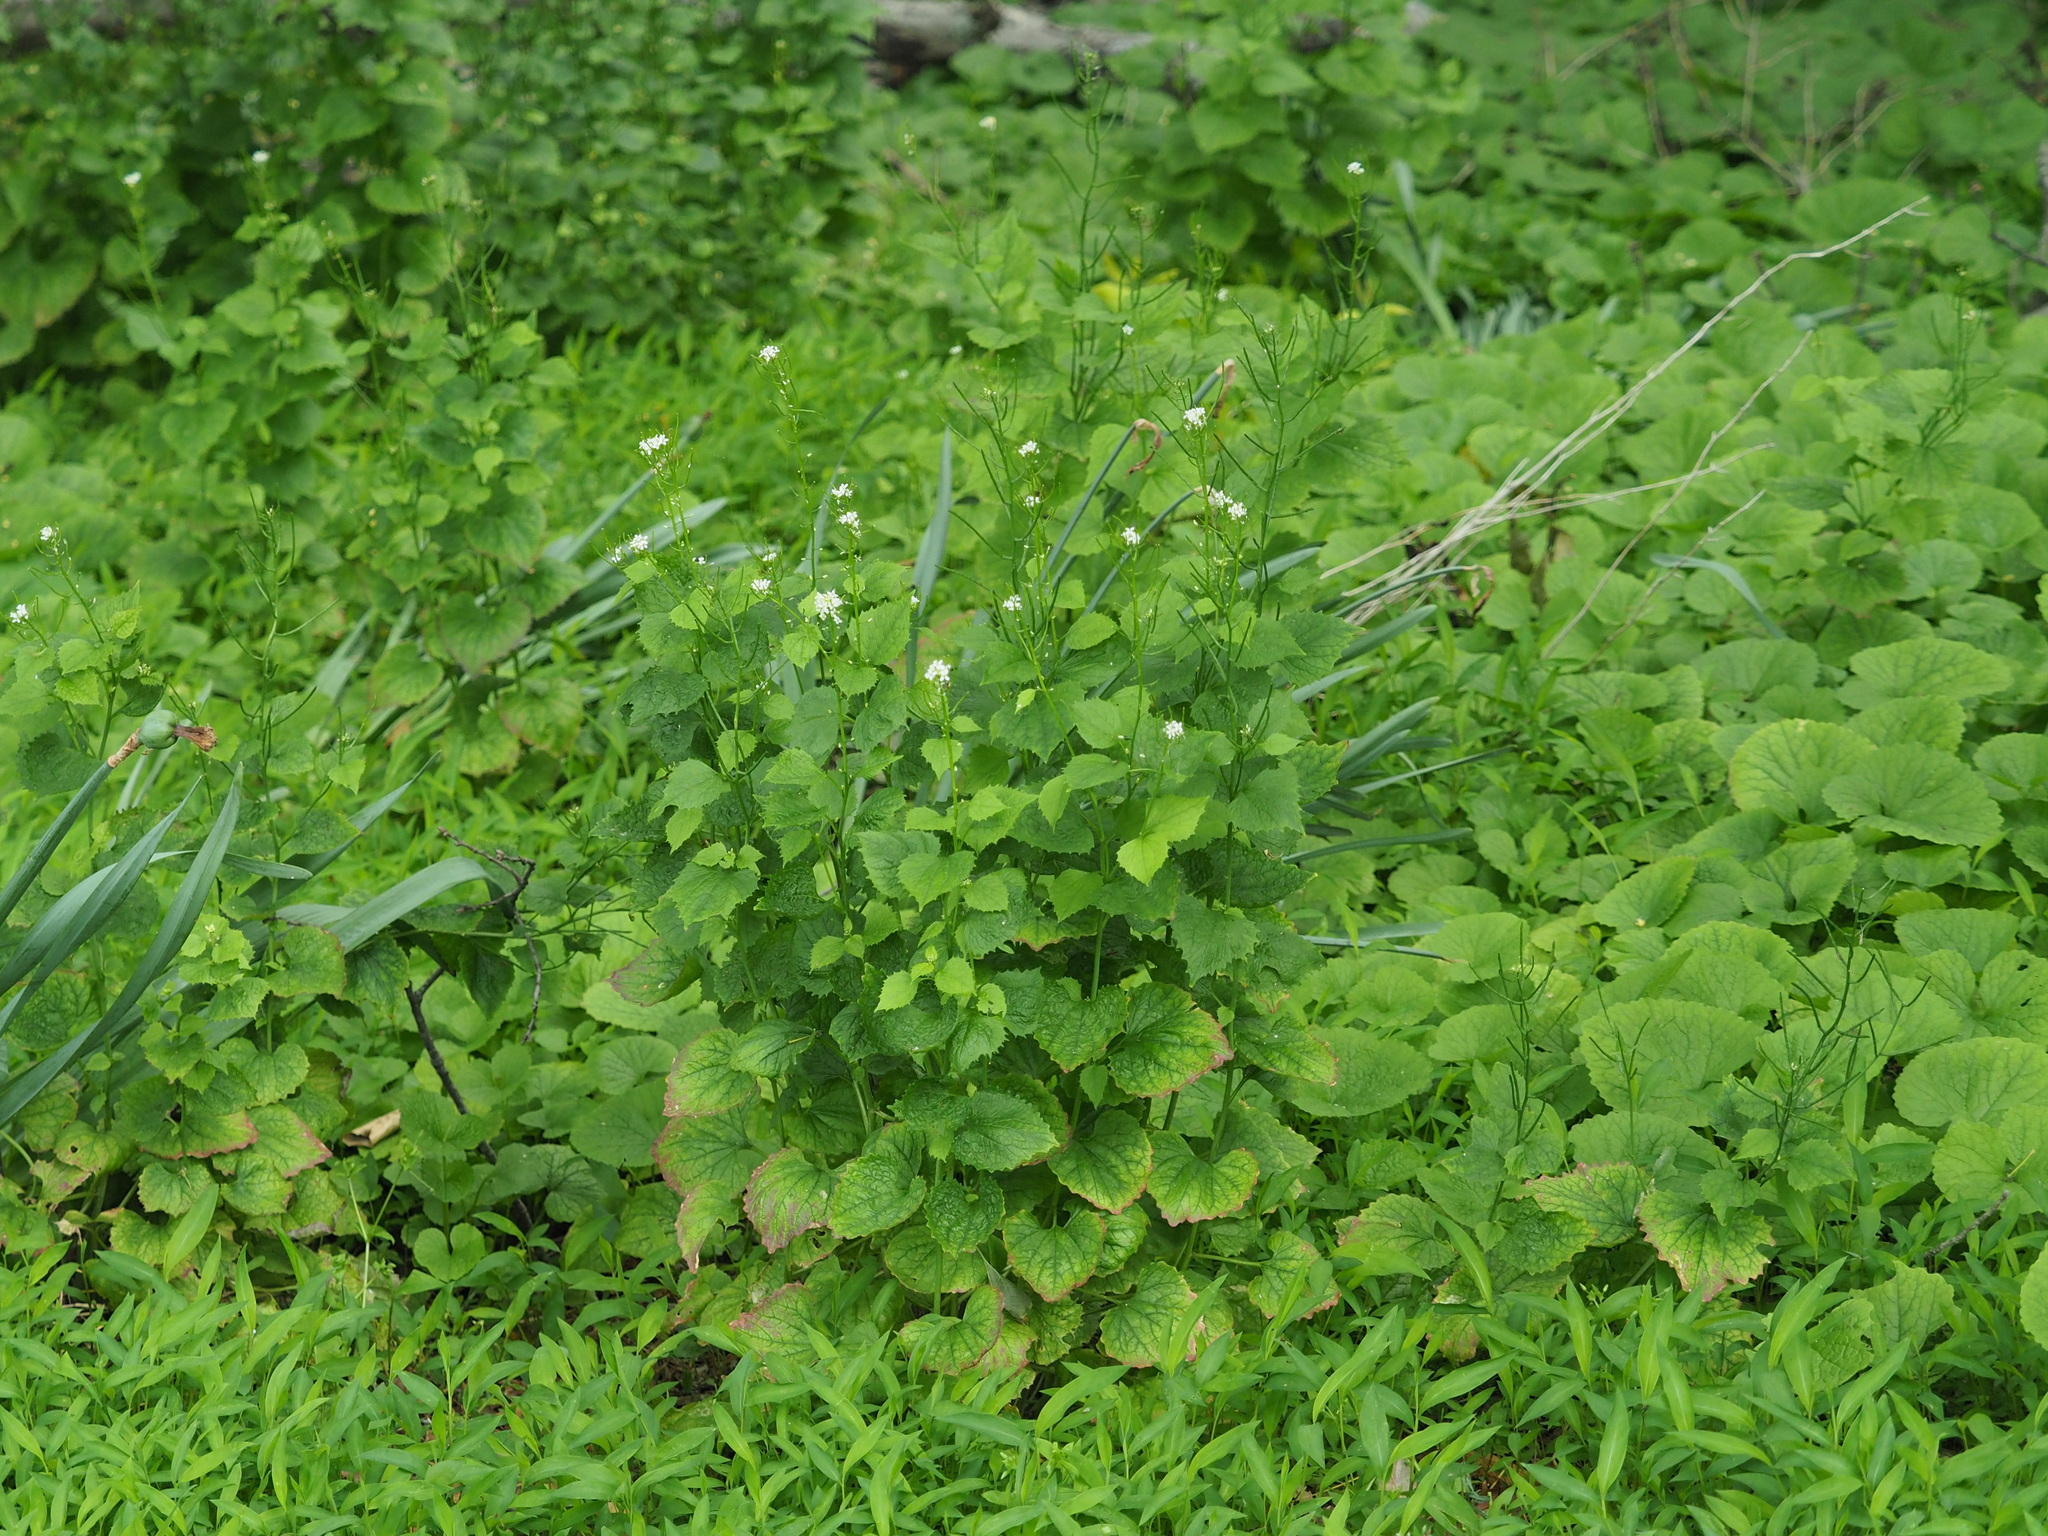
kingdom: Plantae
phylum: Tracheophyta
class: Magnoliopsida
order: Brassicales
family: Brassicaceae
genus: Alliaria
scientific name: Alliaria petiolata
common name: Garlic mustard
